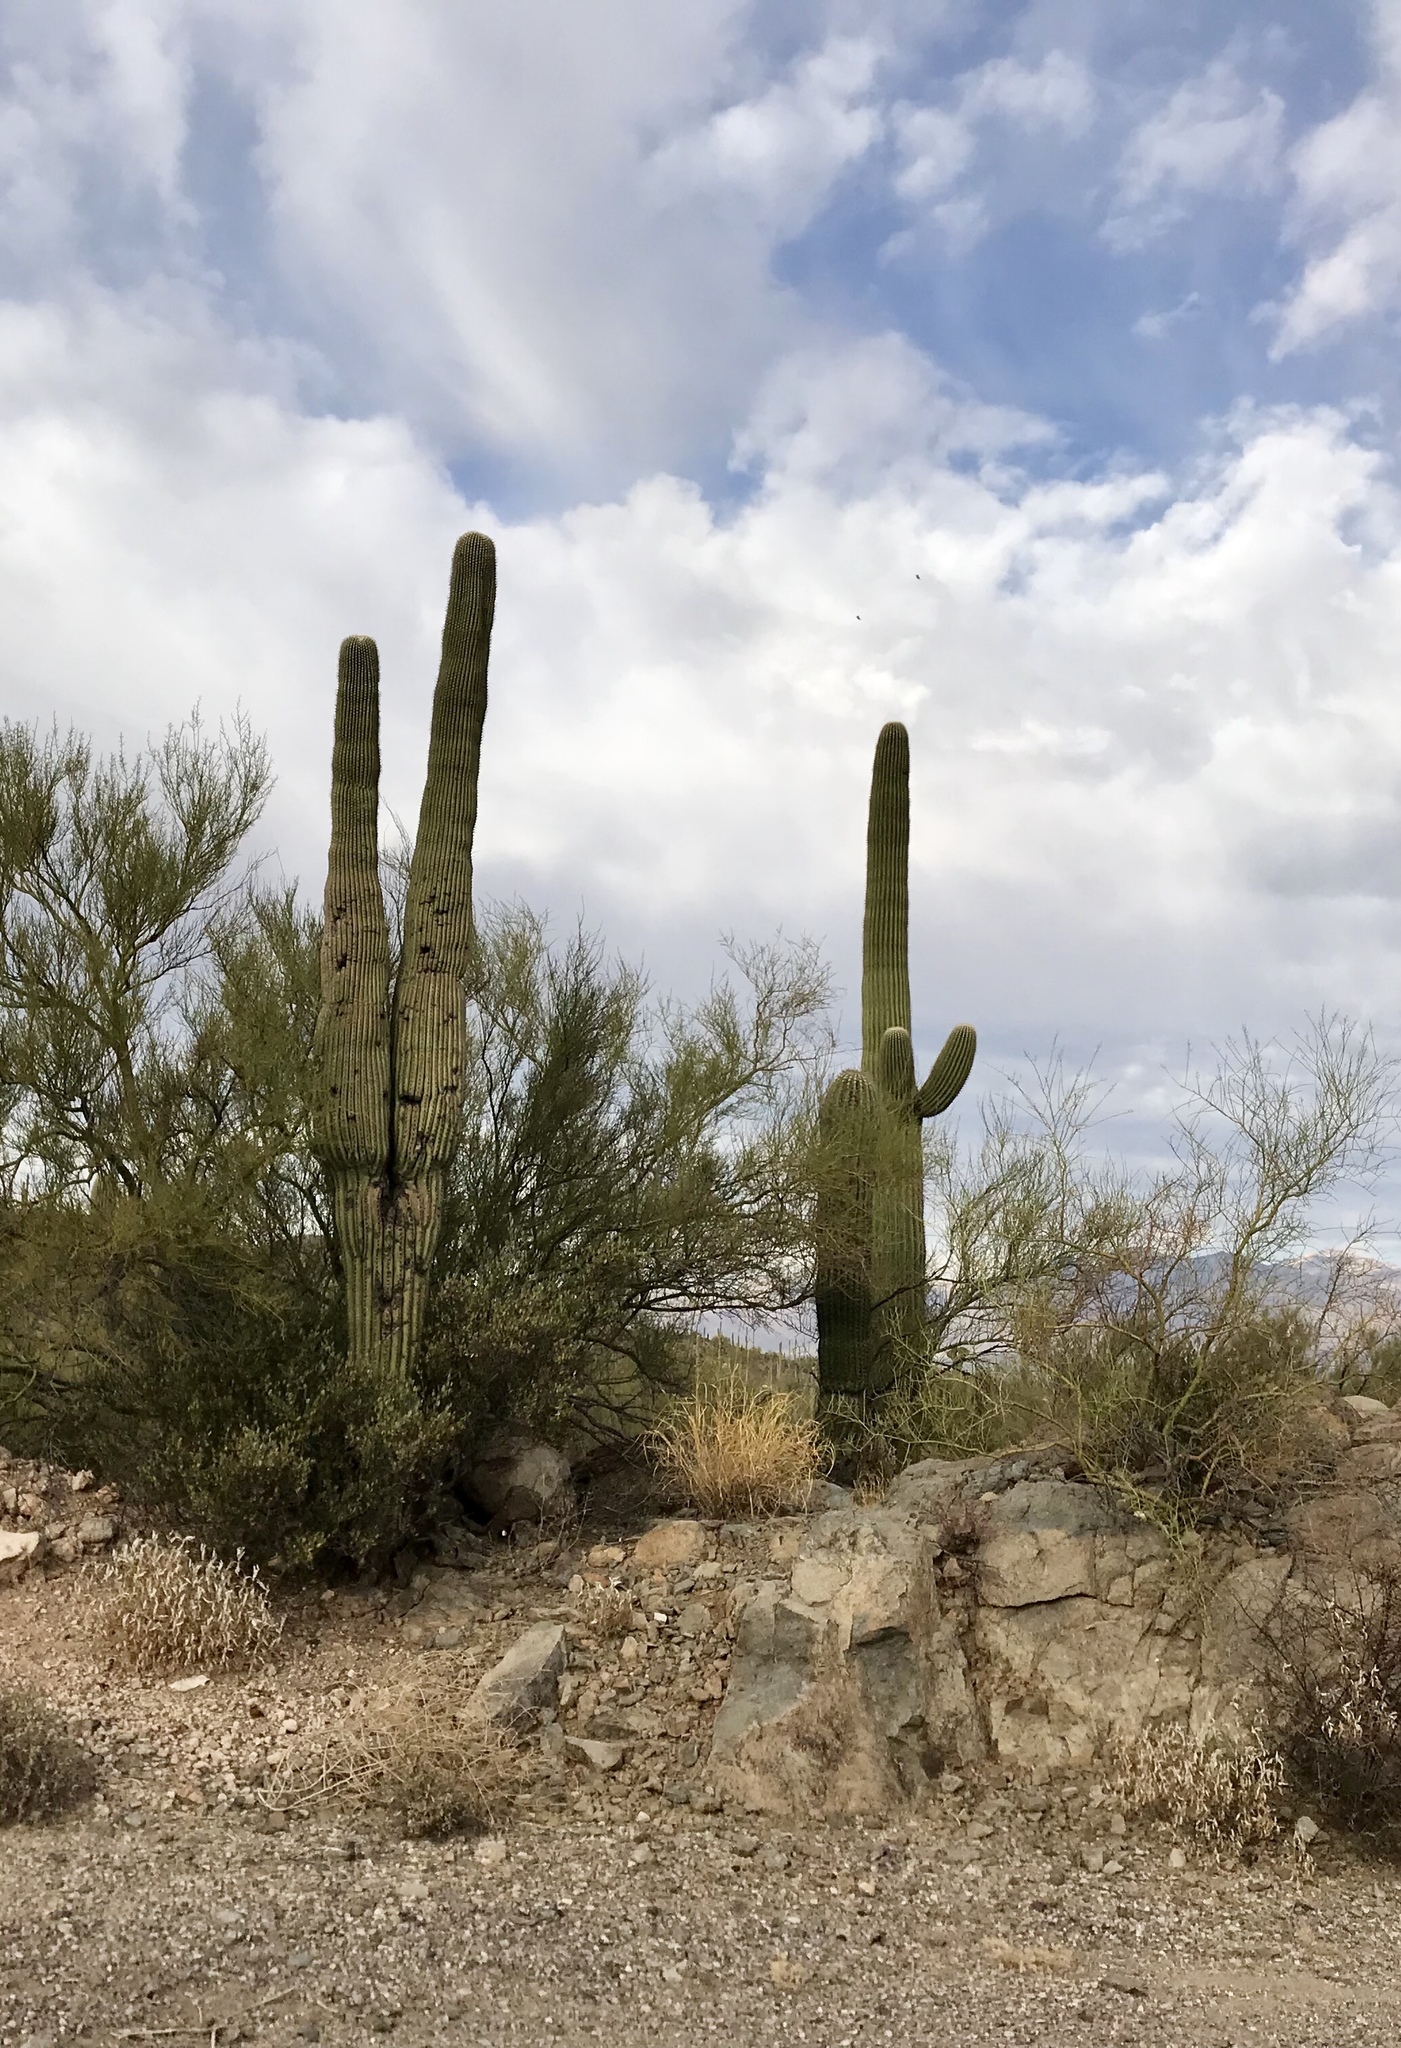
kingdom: Plantae
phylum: Tracheophyta
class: Magnoliopsida
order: Caryophyllales
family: Cactaceae
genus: Carnegiea
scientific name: Carnegiea gigantea
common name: Saguaro
